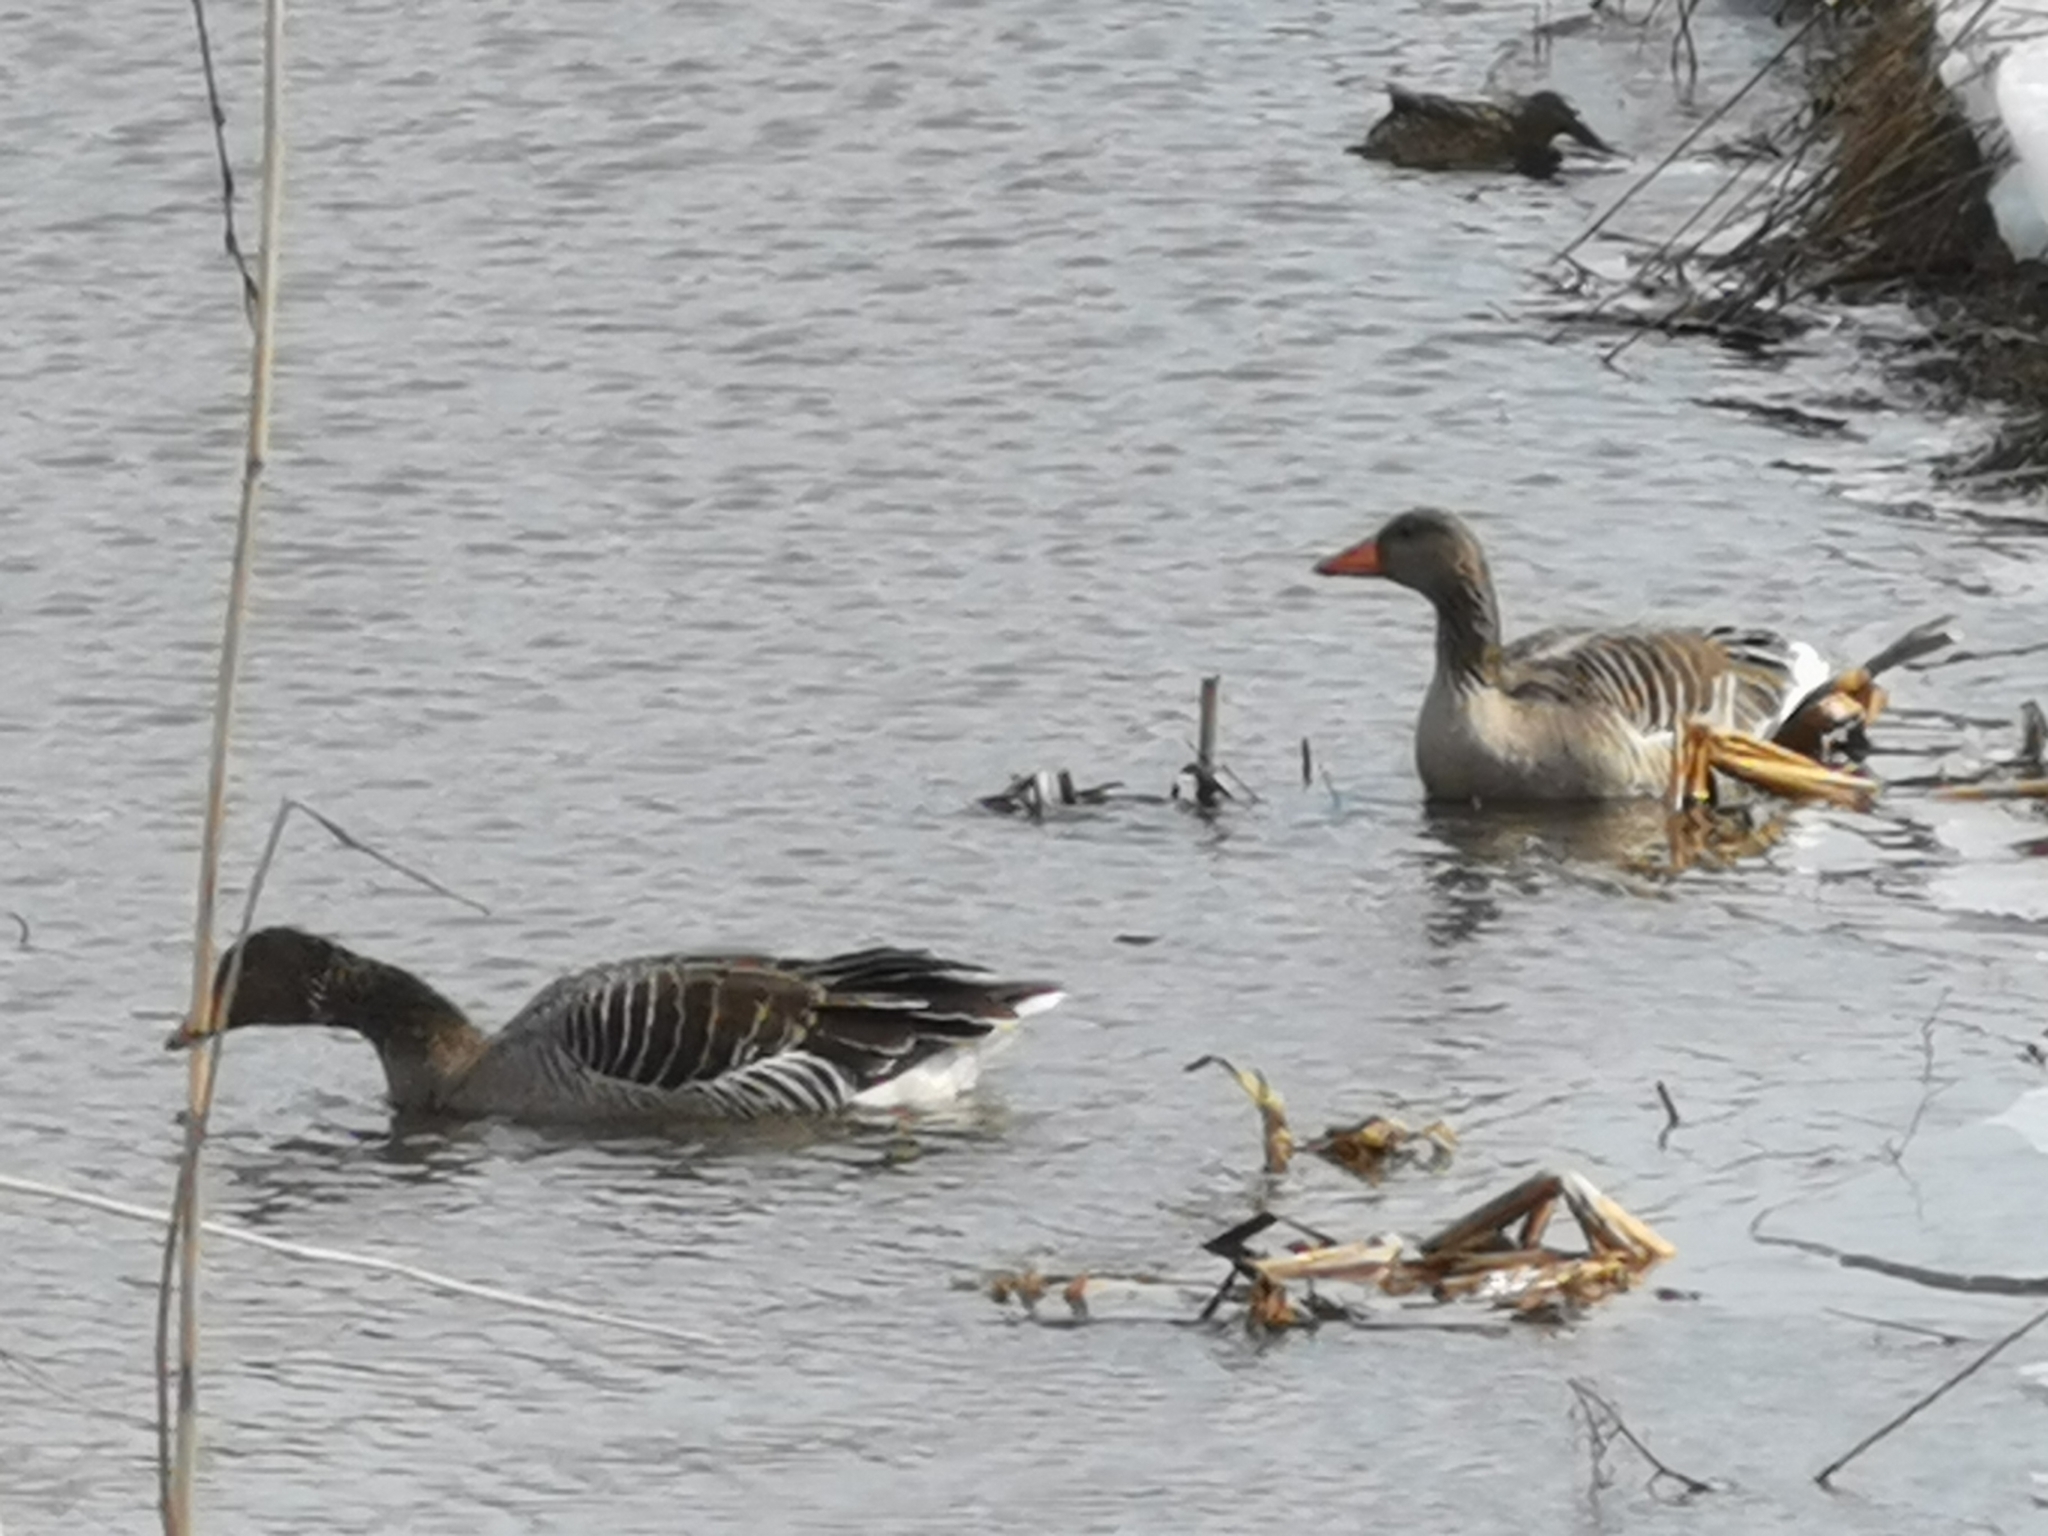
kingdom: Animalia
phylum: Chordata
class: Aves
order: Anseriformes
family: Anatidae
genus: Anser
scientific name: Anser anser
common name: Greylag goose
